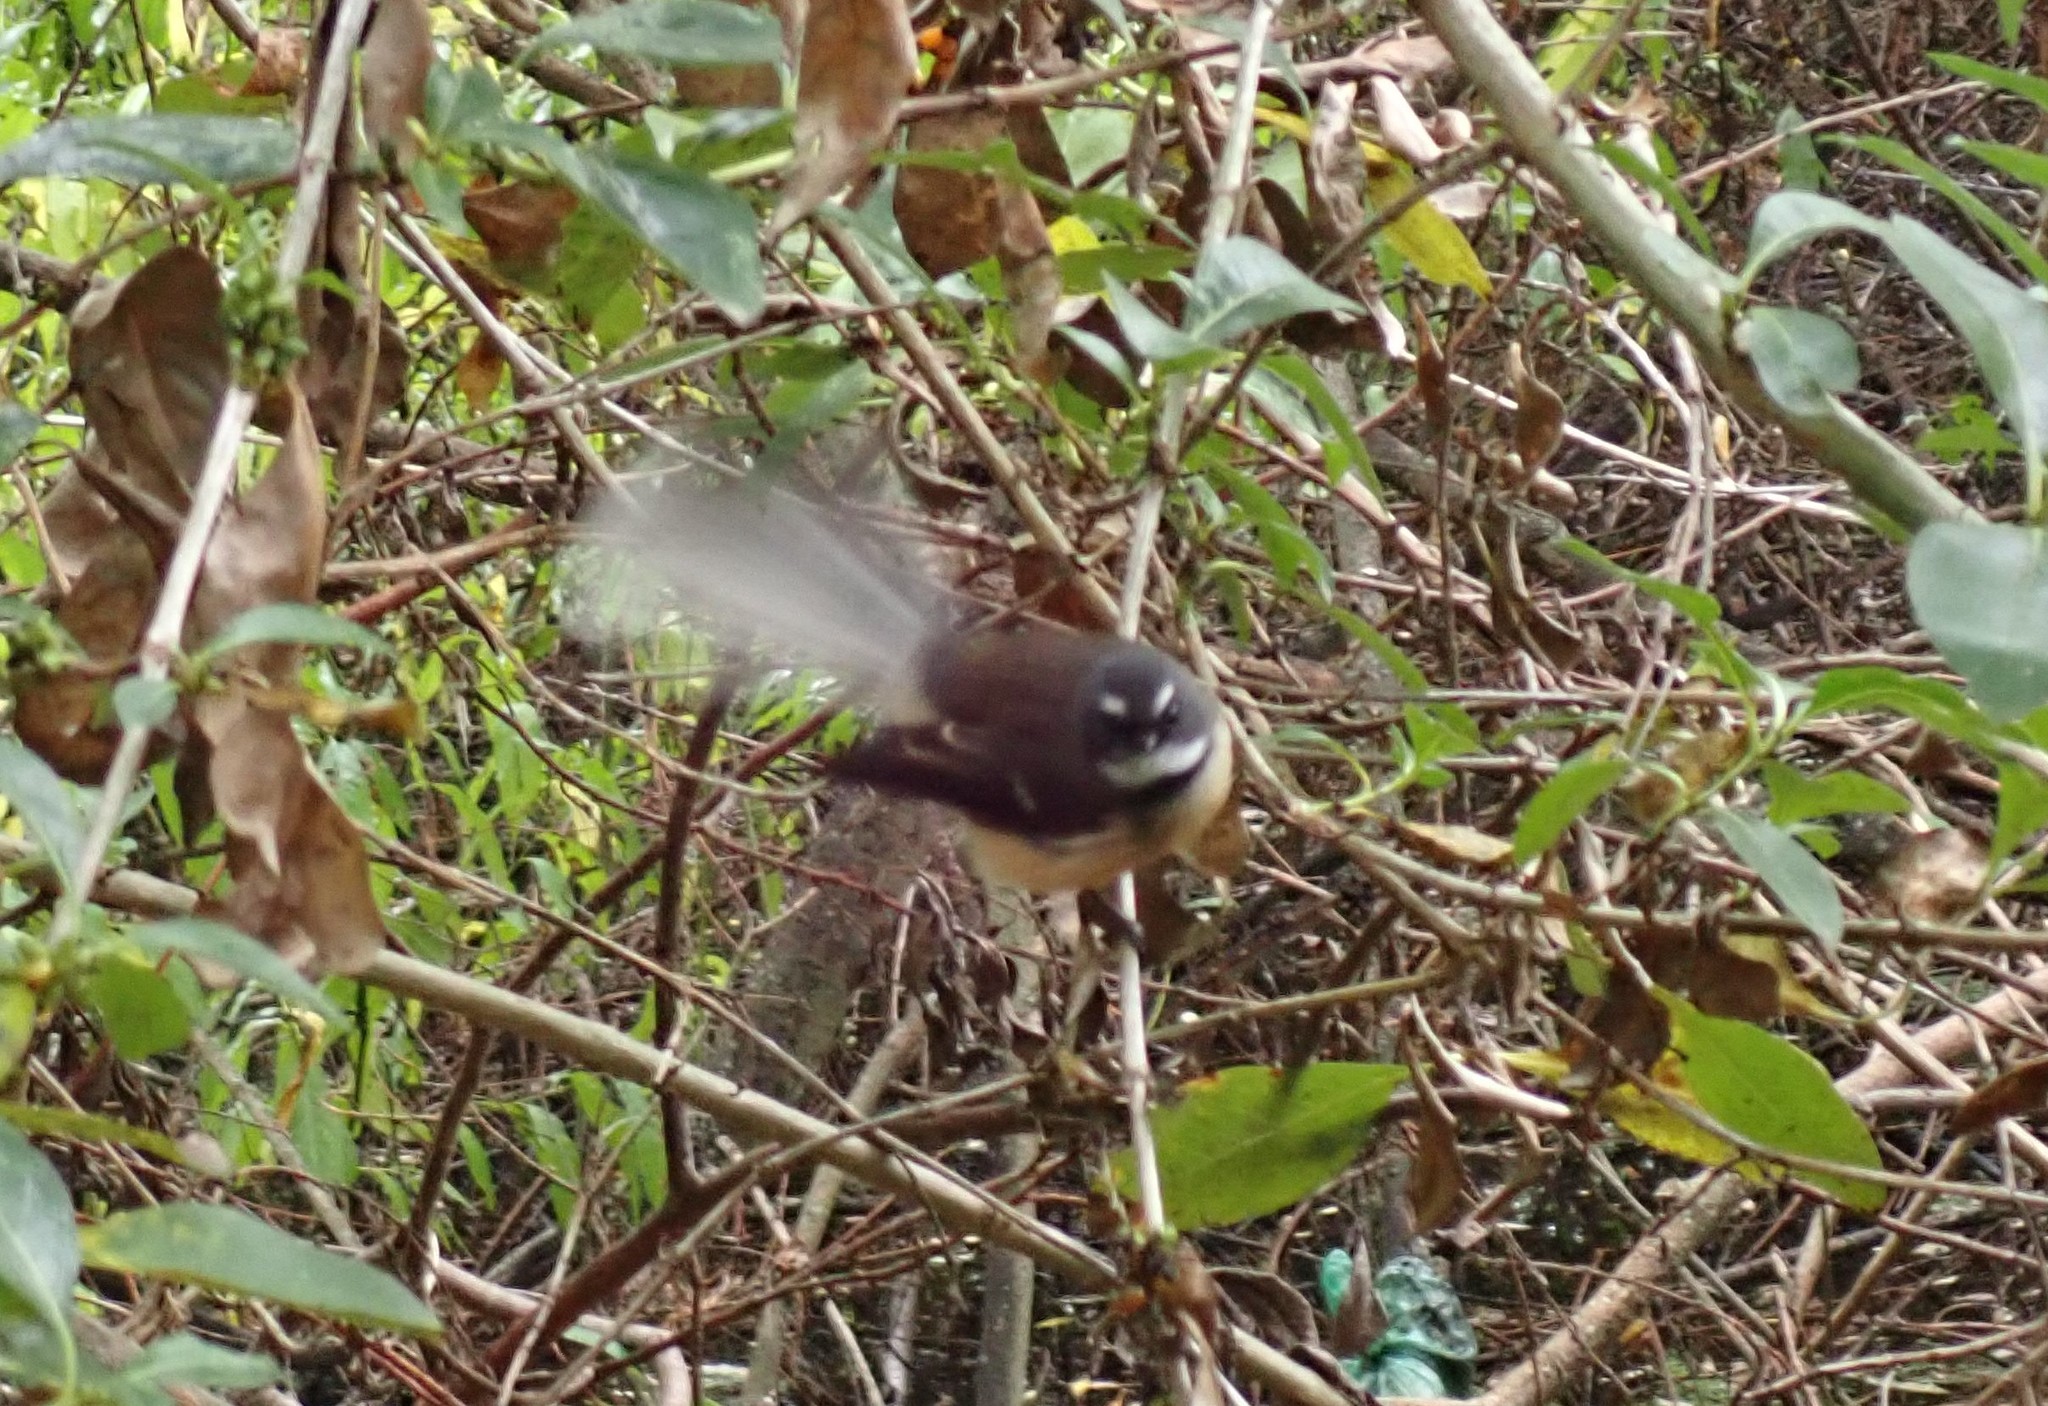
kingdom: Animalia
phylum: Chordata
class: Aves
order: Passeriformes
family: Rhipiduridae
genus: Rhipidura
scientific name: Rhipidura fuliginosa
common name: New zealand fantail
